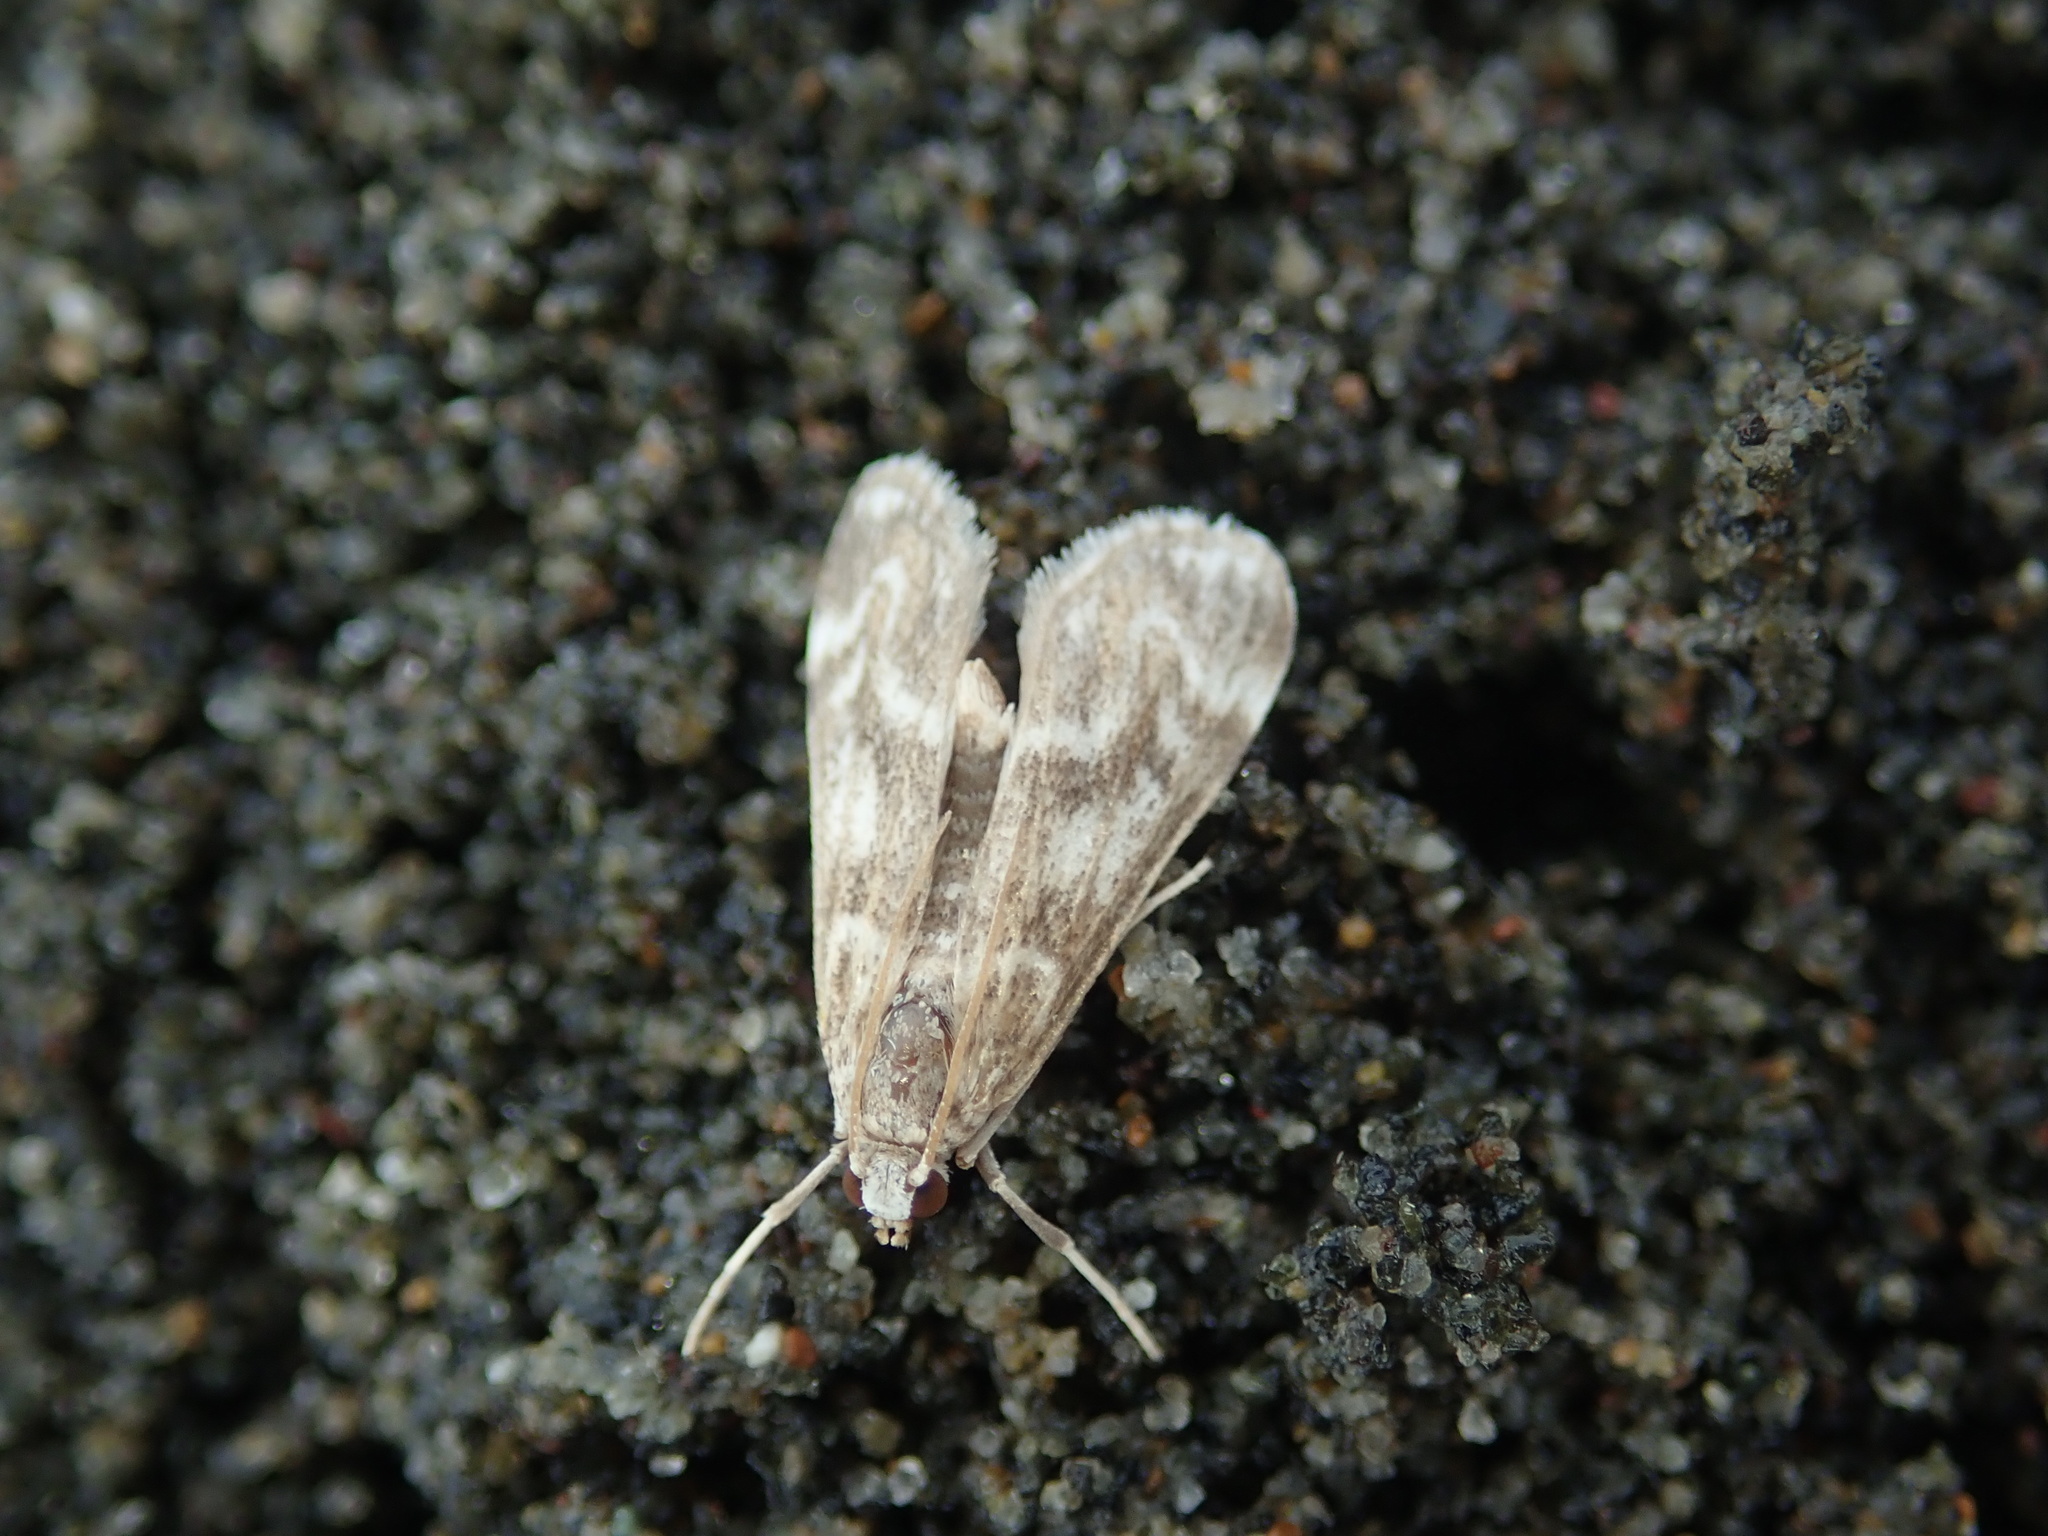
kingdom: Animalia
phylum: Arthropoda
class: Insecta
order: Lepidoptera
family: Crambidae
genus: Hygraula
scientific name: Hygraula nitens
